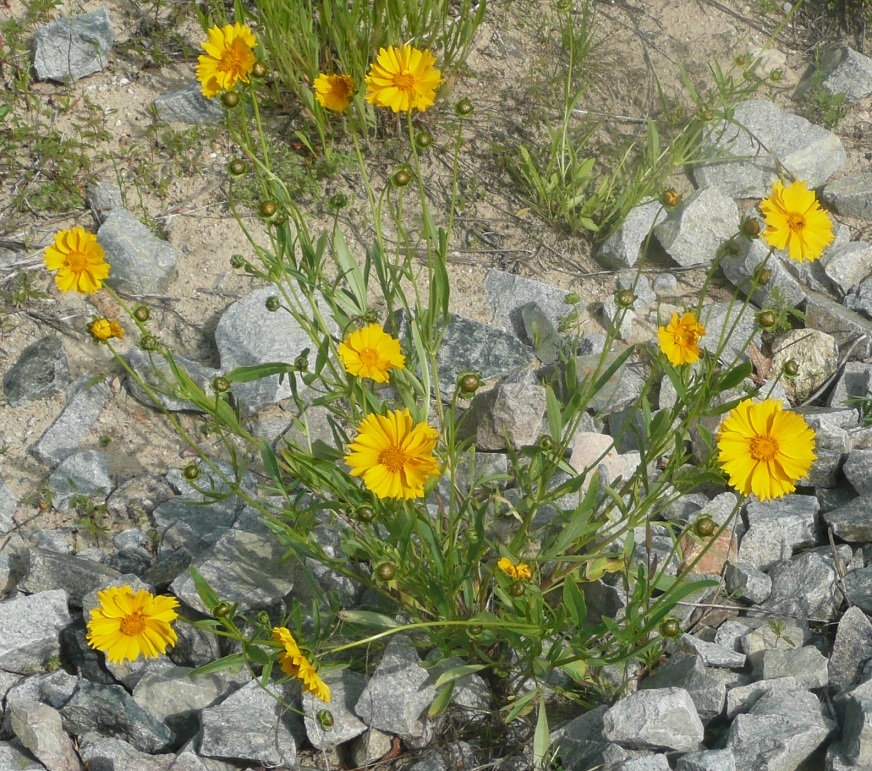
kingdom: Plantae
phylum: Tracheophyta
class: Magnoliopsida
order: Asterales
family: Asteraceae
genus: Coreopsis
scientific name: Coreopsis lanceolata
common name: Garden coreopsis
